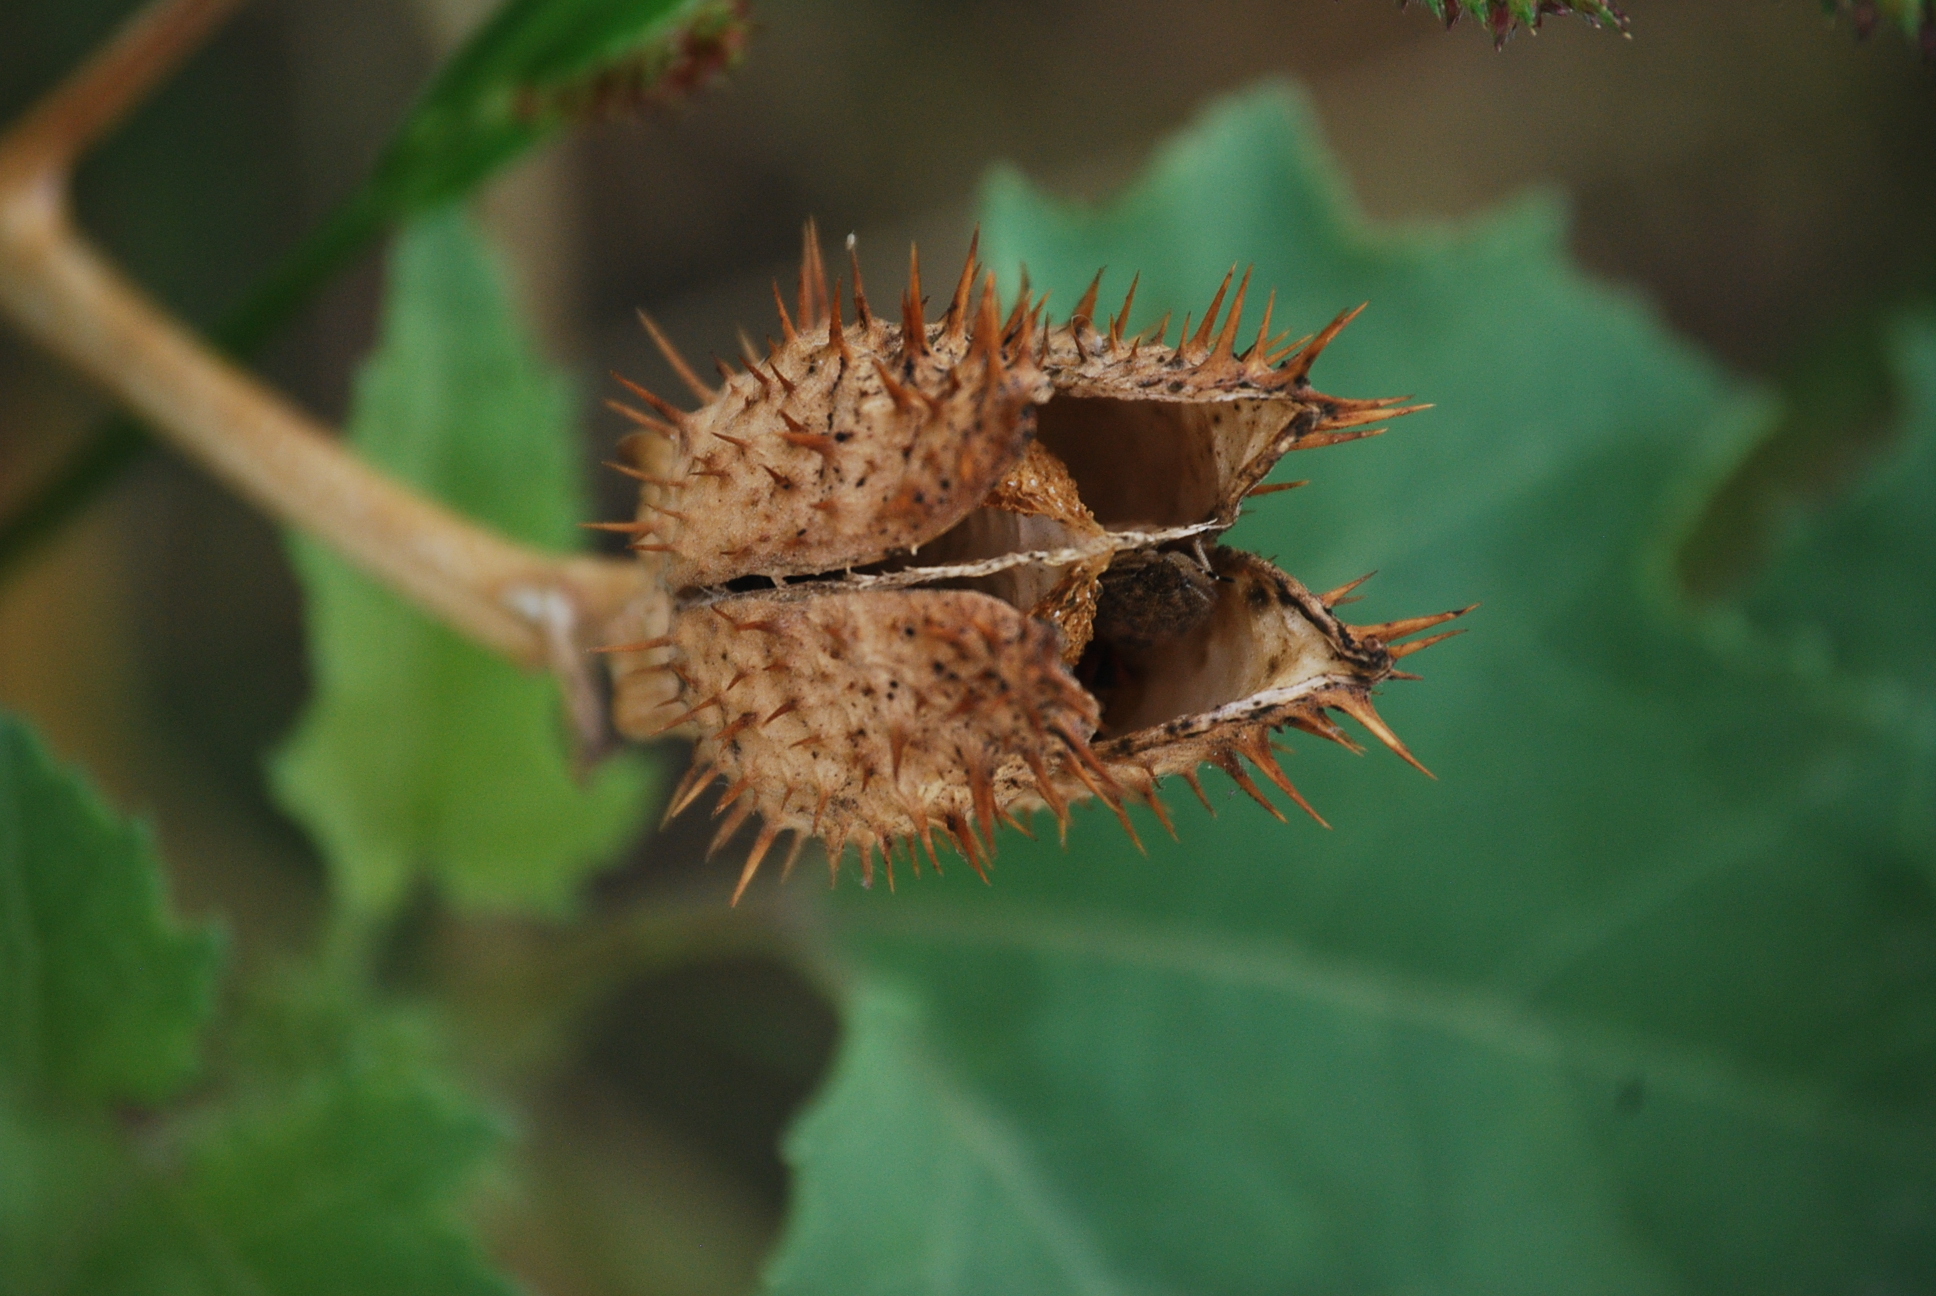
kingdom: Plantae
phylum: Tracheophyta
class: Magnoliopsida
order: Solanales
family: Solanaceae
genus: Datura
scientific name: Datura stramonium
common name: Thorn-apple
